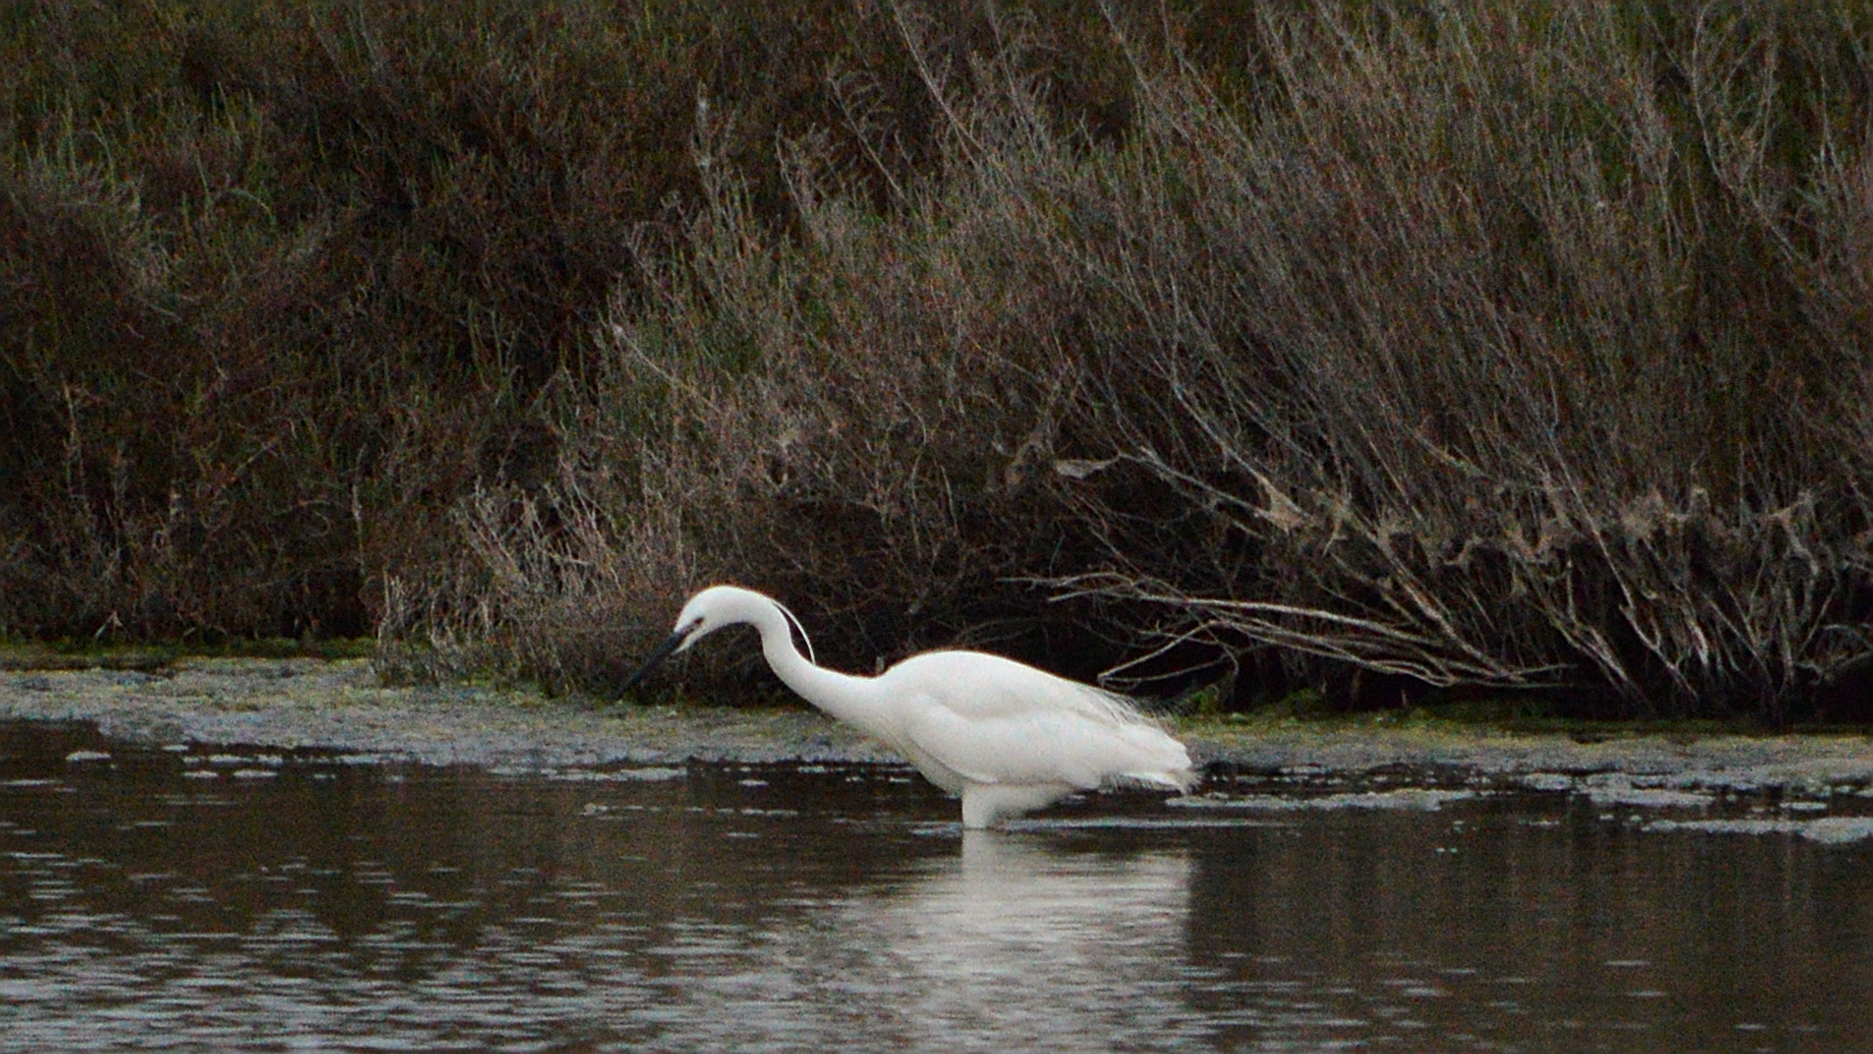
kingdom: Animalia
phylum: Chordata
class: Aves
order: Pelecaniformes
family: Ardeidae
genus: Egretta
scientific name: Egretta garzetta
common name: Little egret
